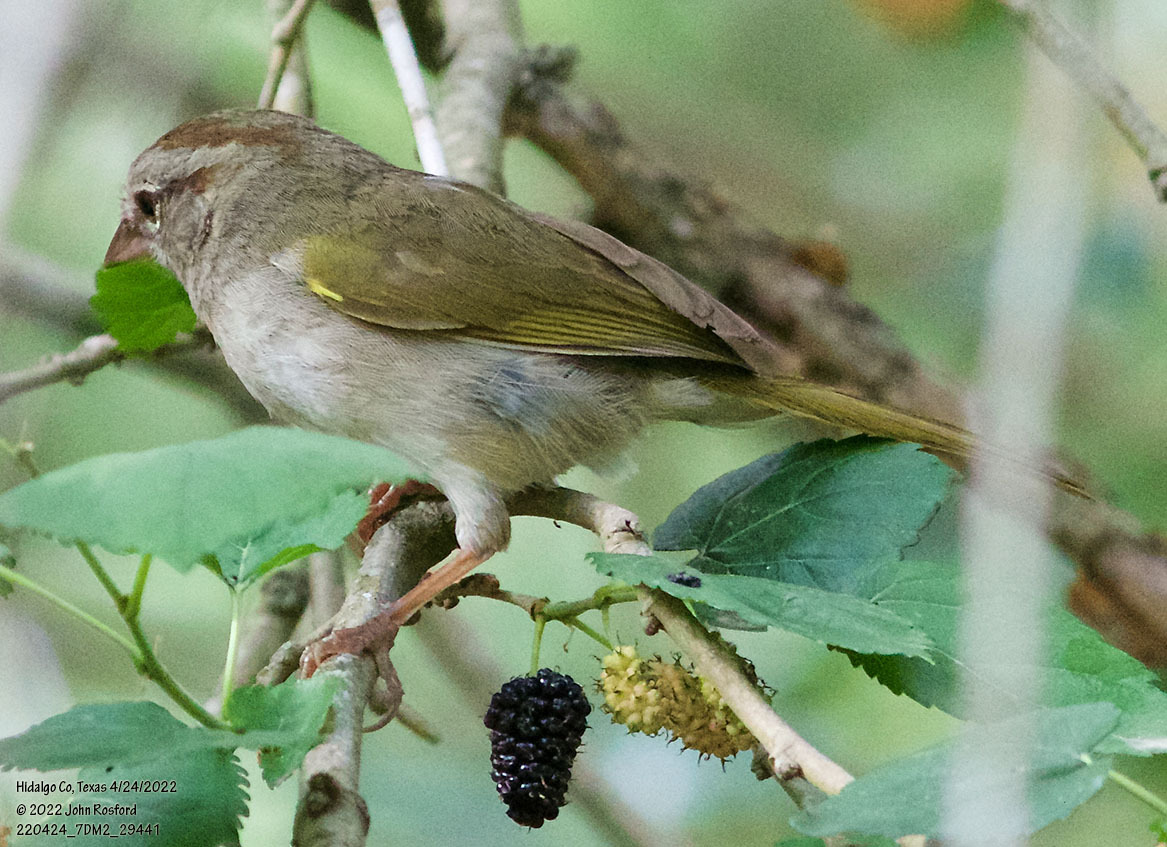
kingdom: Animalia
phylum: Chordata
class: Aves
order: Passeriformes
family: Passerellidae
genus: Arremonops
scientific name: Arremonops rufivirgatus
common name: Olive sparrow
